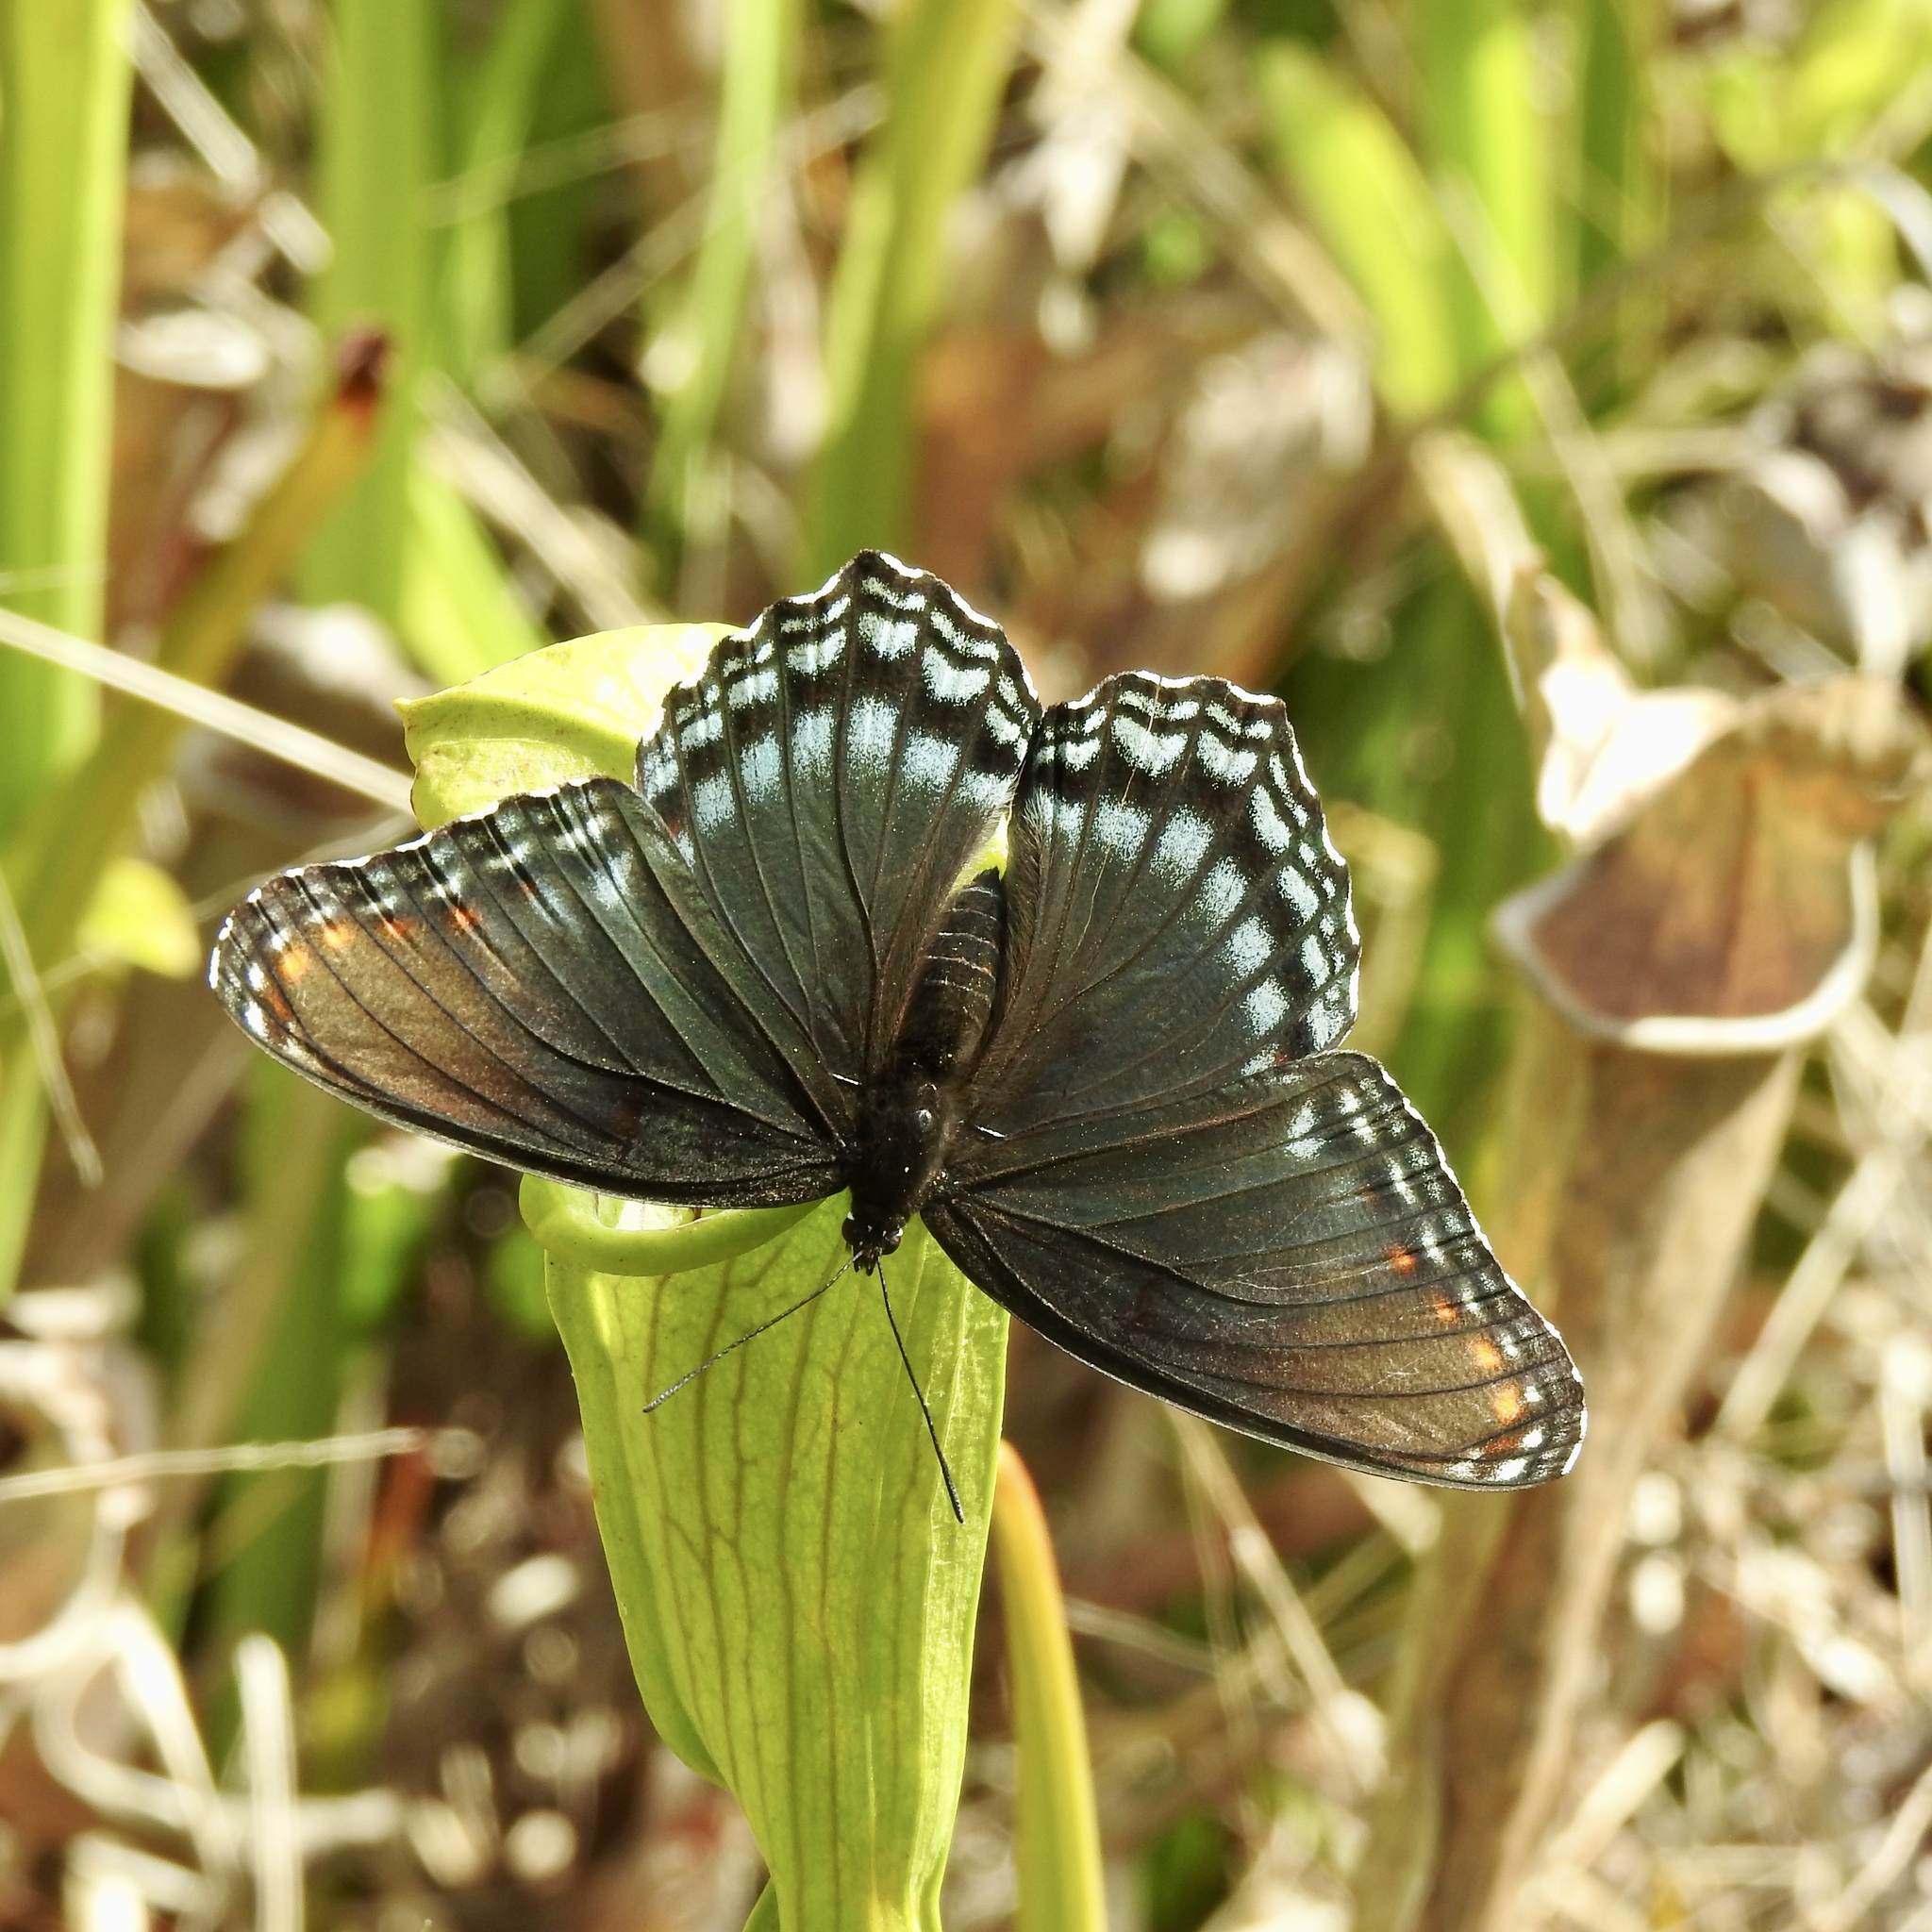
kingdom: Animalia
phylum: Arthropoda
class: Insecta
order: Lepidoptera
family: Nymphalidae
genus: Limenitis
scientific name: Limenitis astyanax
